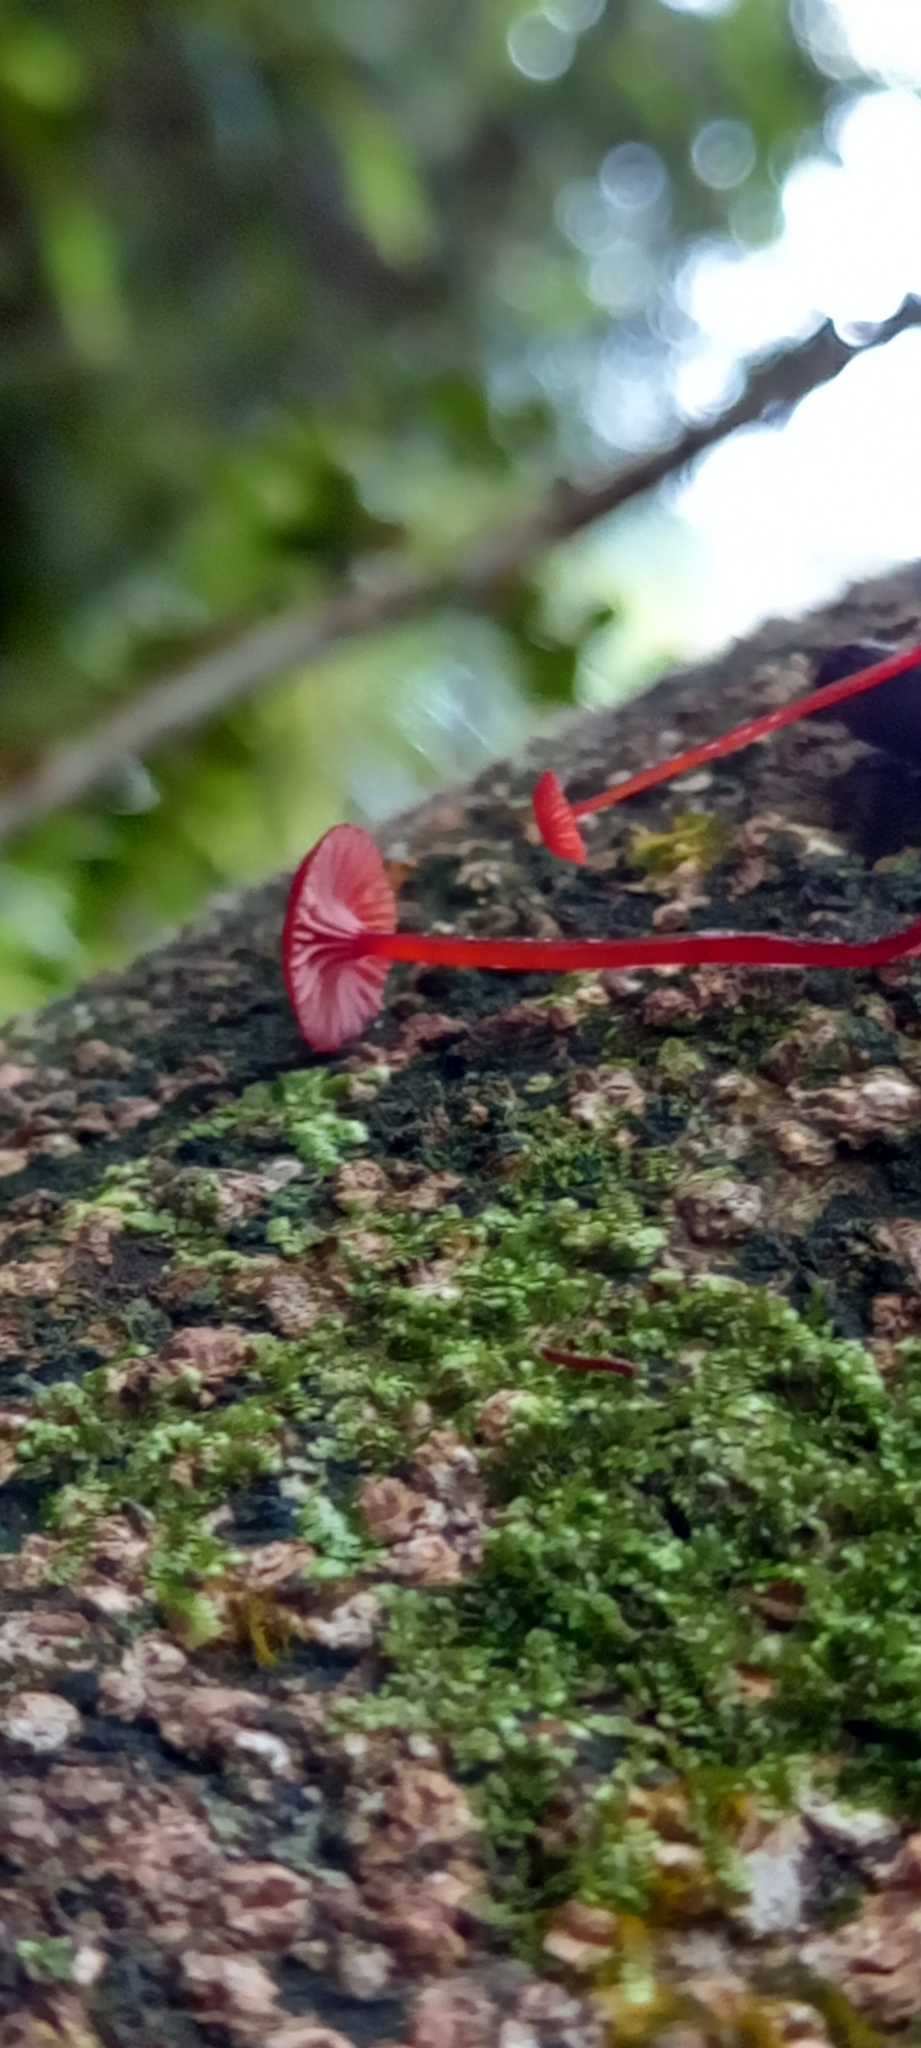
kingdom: Fungi
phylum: Basidiomycota
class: Agaricomycetes
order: Agaricales
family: Mycenaceae
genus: Cruentomycena
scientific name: Cruentomycena viscidocruenta
